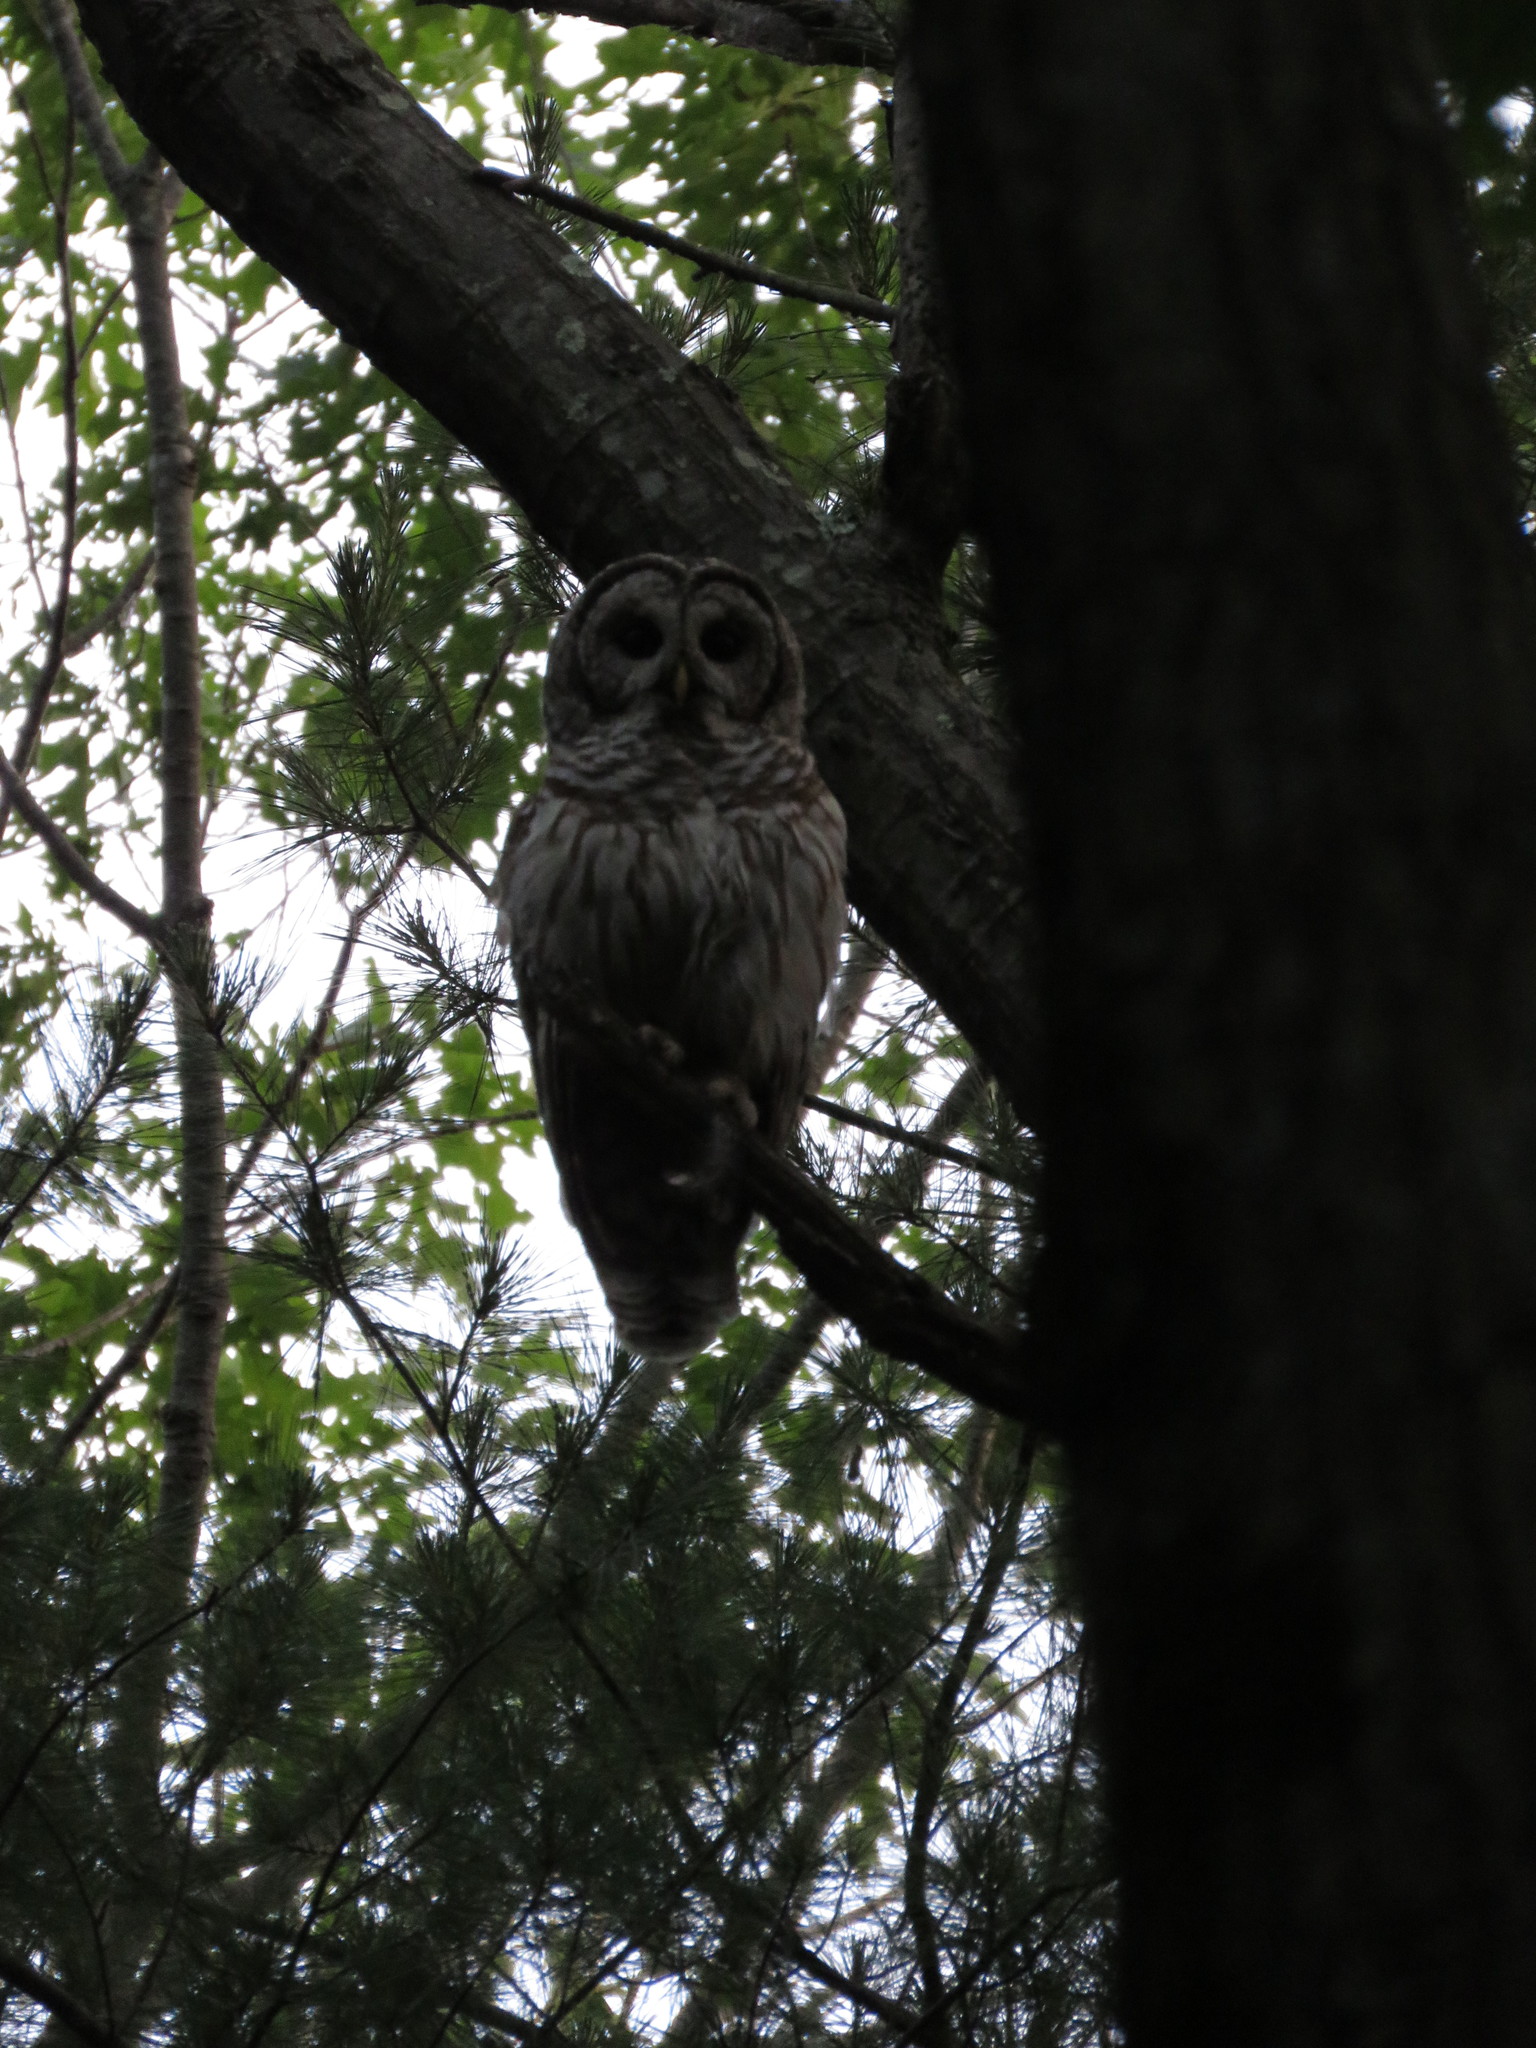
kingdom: Animalia
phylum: Chordata
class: Aves
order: Strigiformes
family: Strigidae
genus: Strix
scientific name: Strix varia
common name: Barred owl
